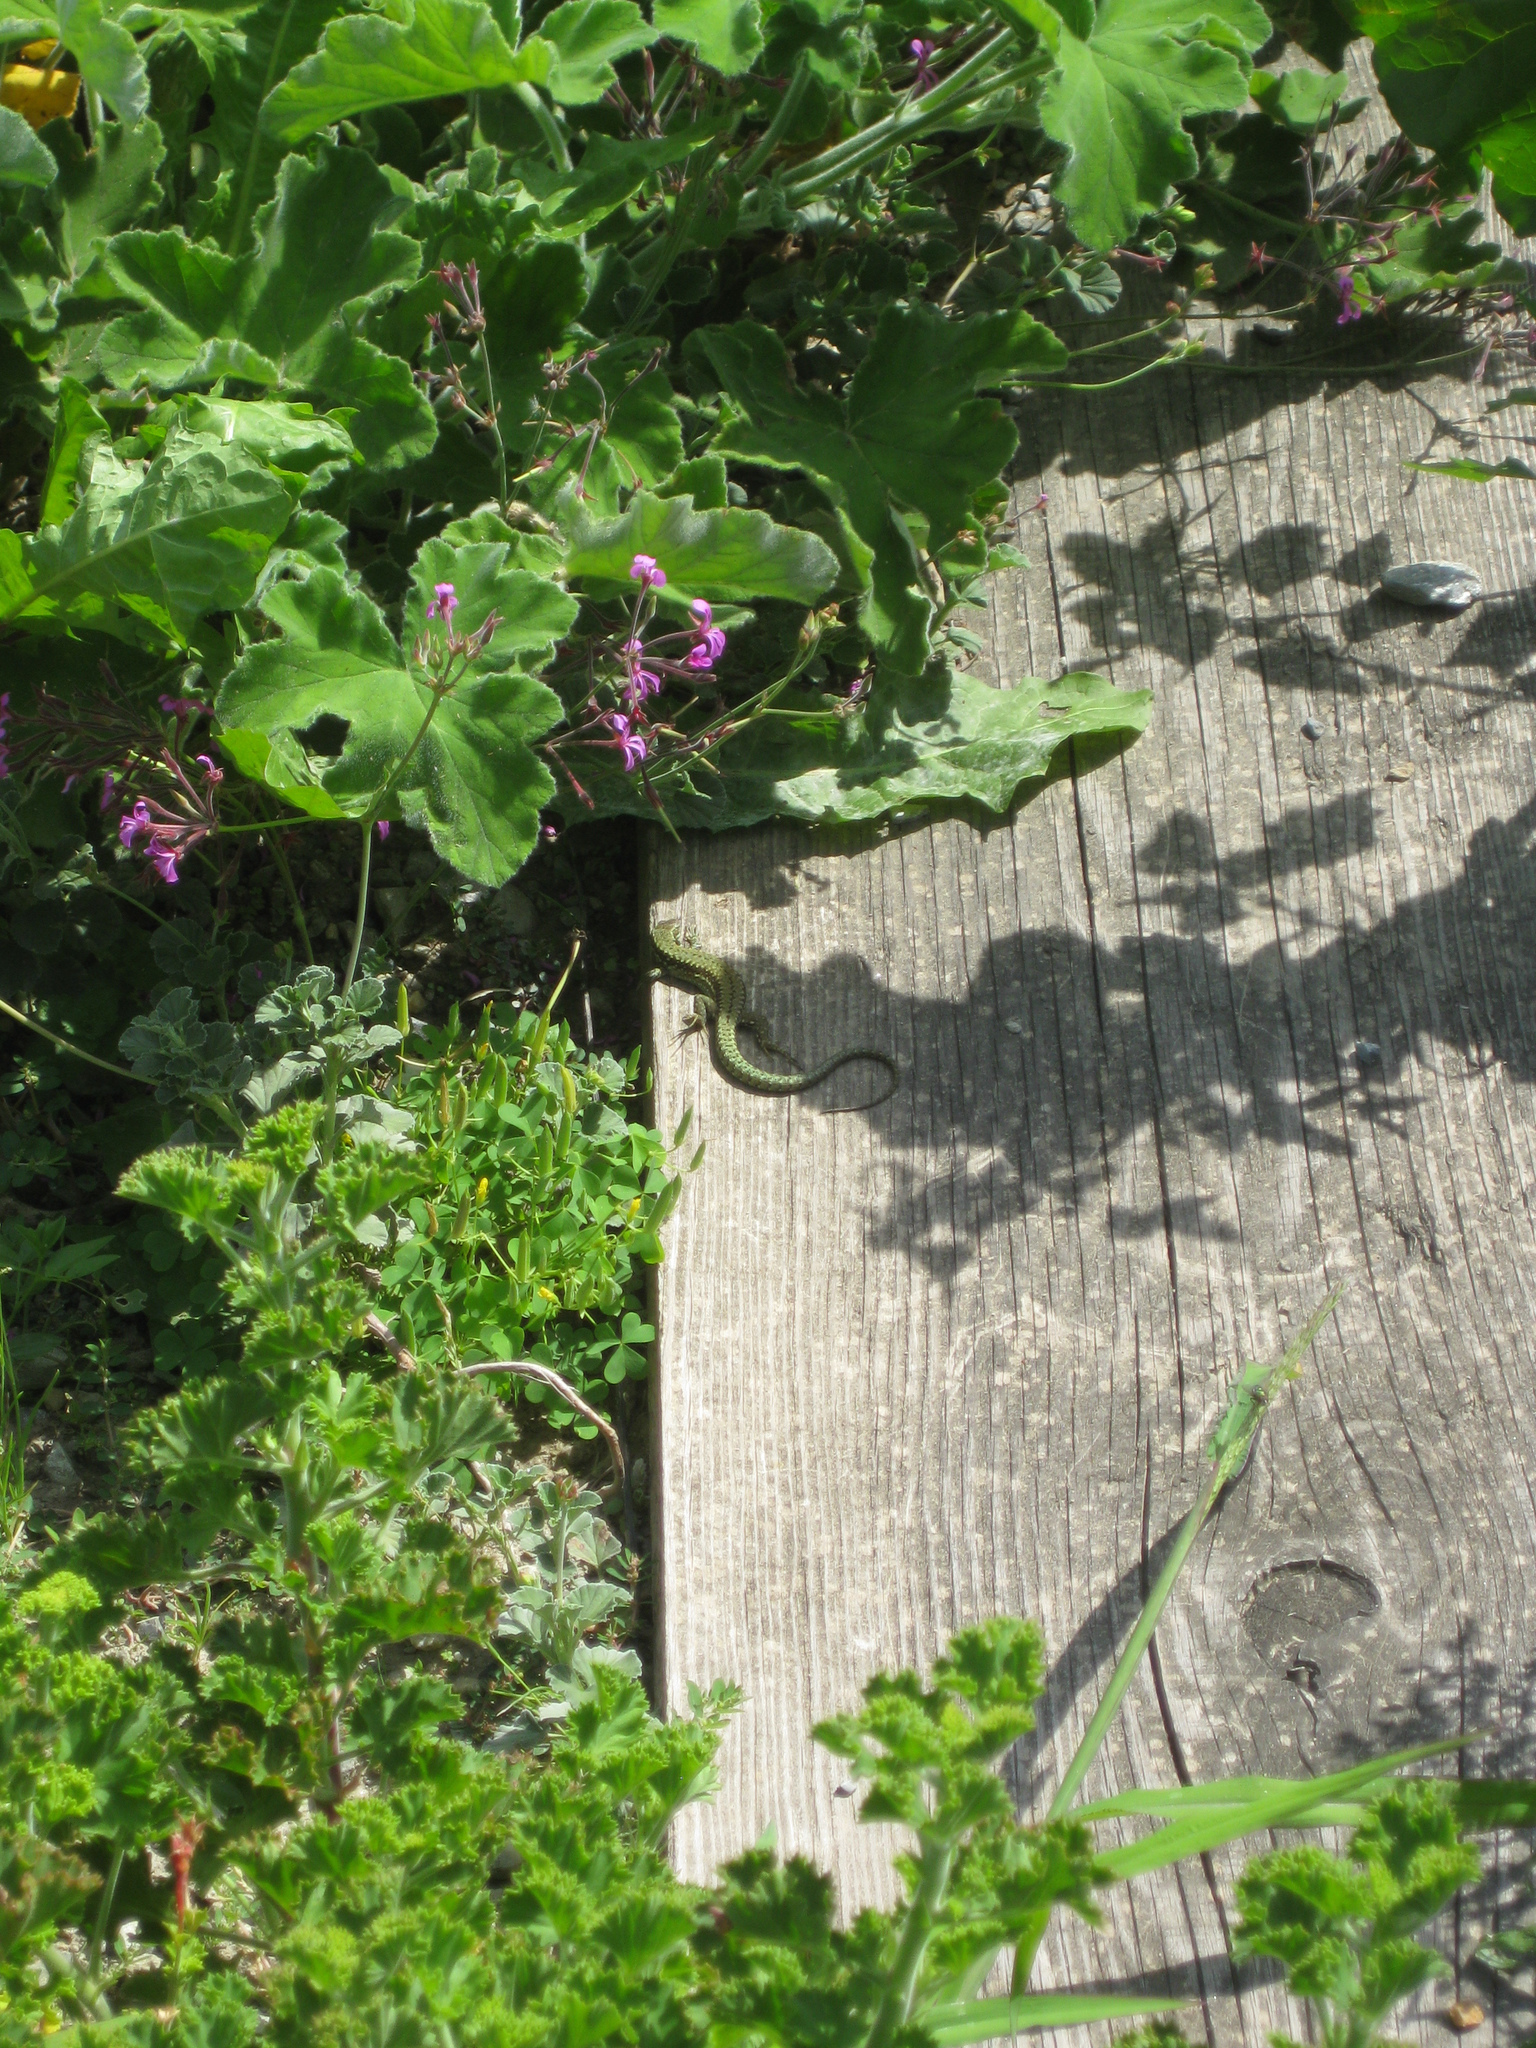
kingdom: Animalia
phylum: Chordata
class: Squamata
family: Lacertidae
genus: Podarcis
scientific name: Podarcis muralis
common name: Common wall lizard
